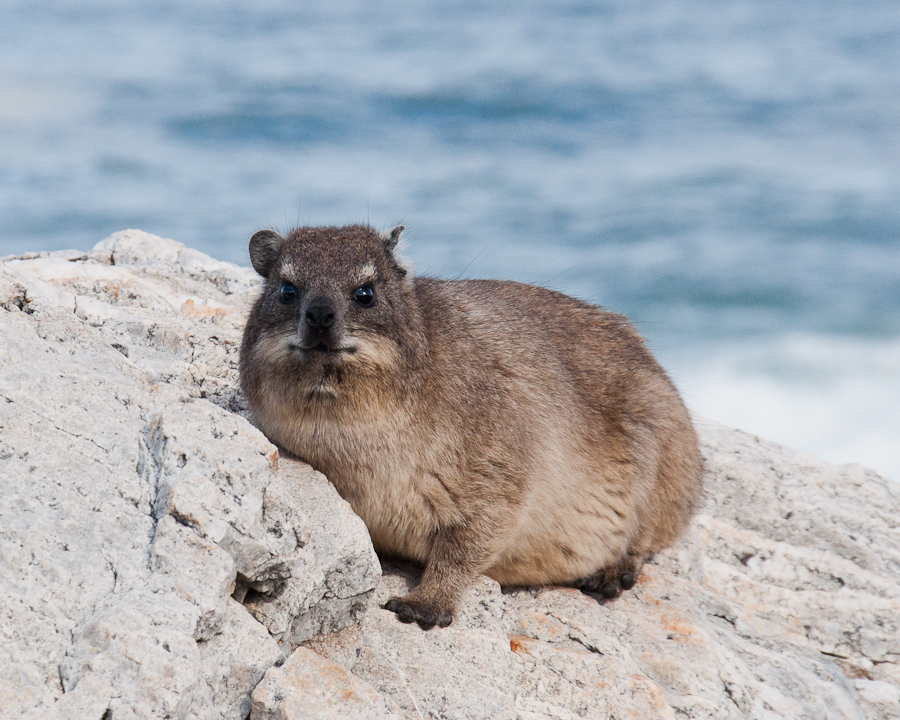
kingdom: Animalia
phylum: Chordata
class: Mammalia
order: Hyracoidea
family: Procaviidae
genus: Procavia
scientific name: Procavia capensis
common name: Rock hyrax
